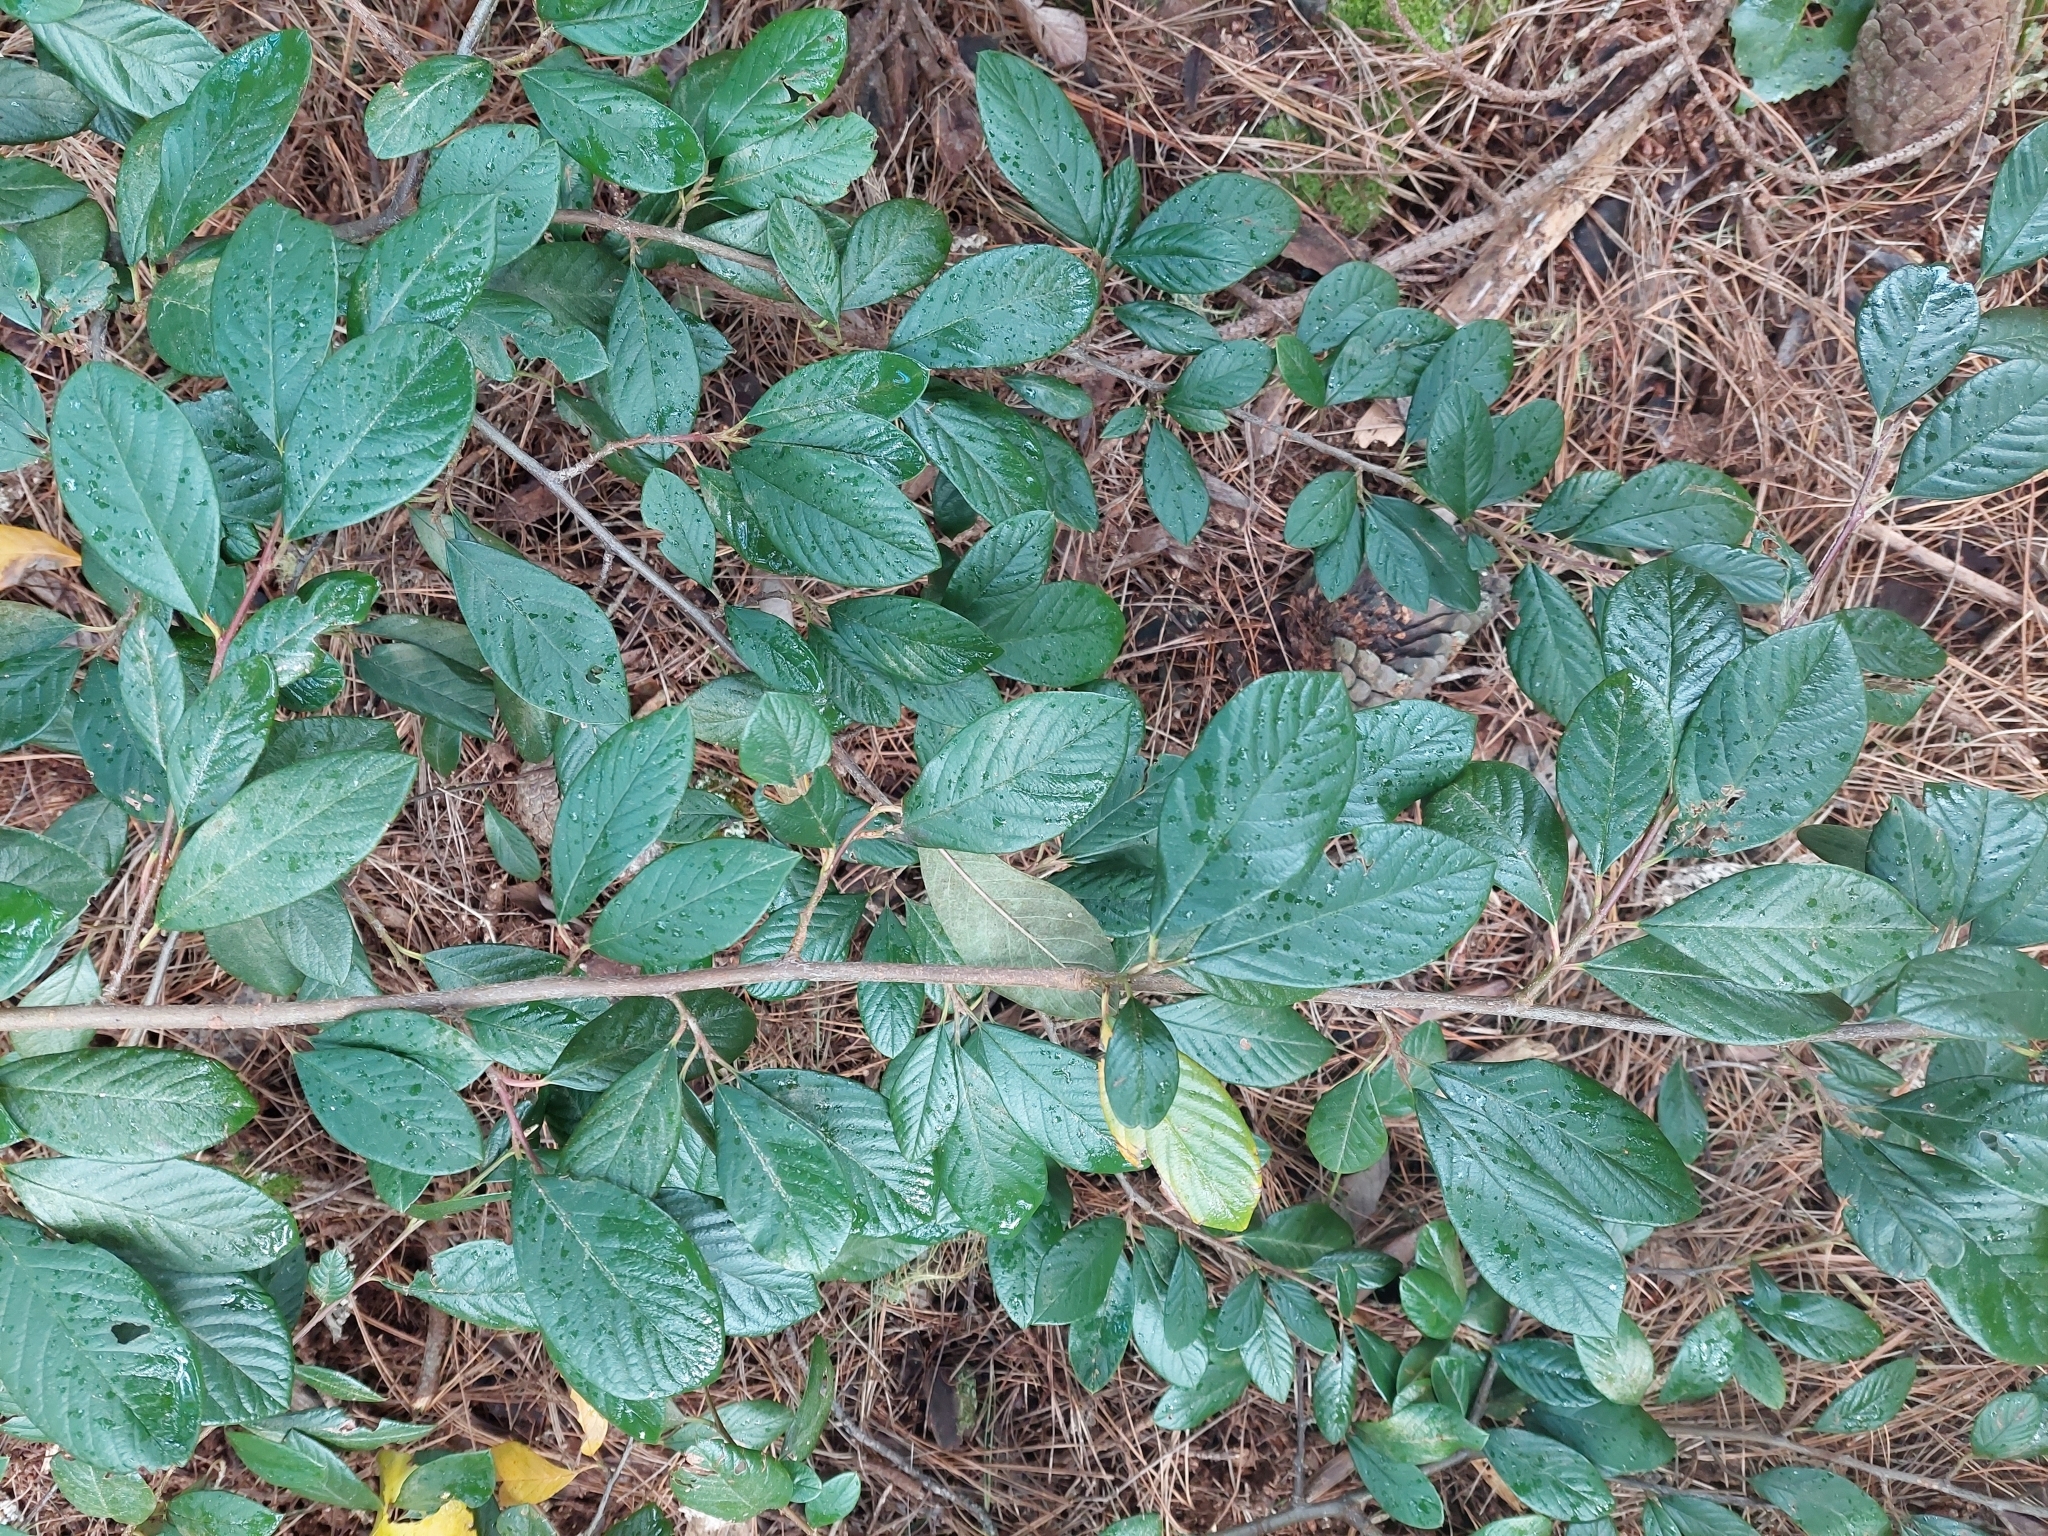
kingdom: Plantae
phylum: Tracheophyta
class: Magnoliopsida
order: Rosales
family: Rosaceae
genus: Cotoneaster
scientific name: Cotoneaster coriaceus
